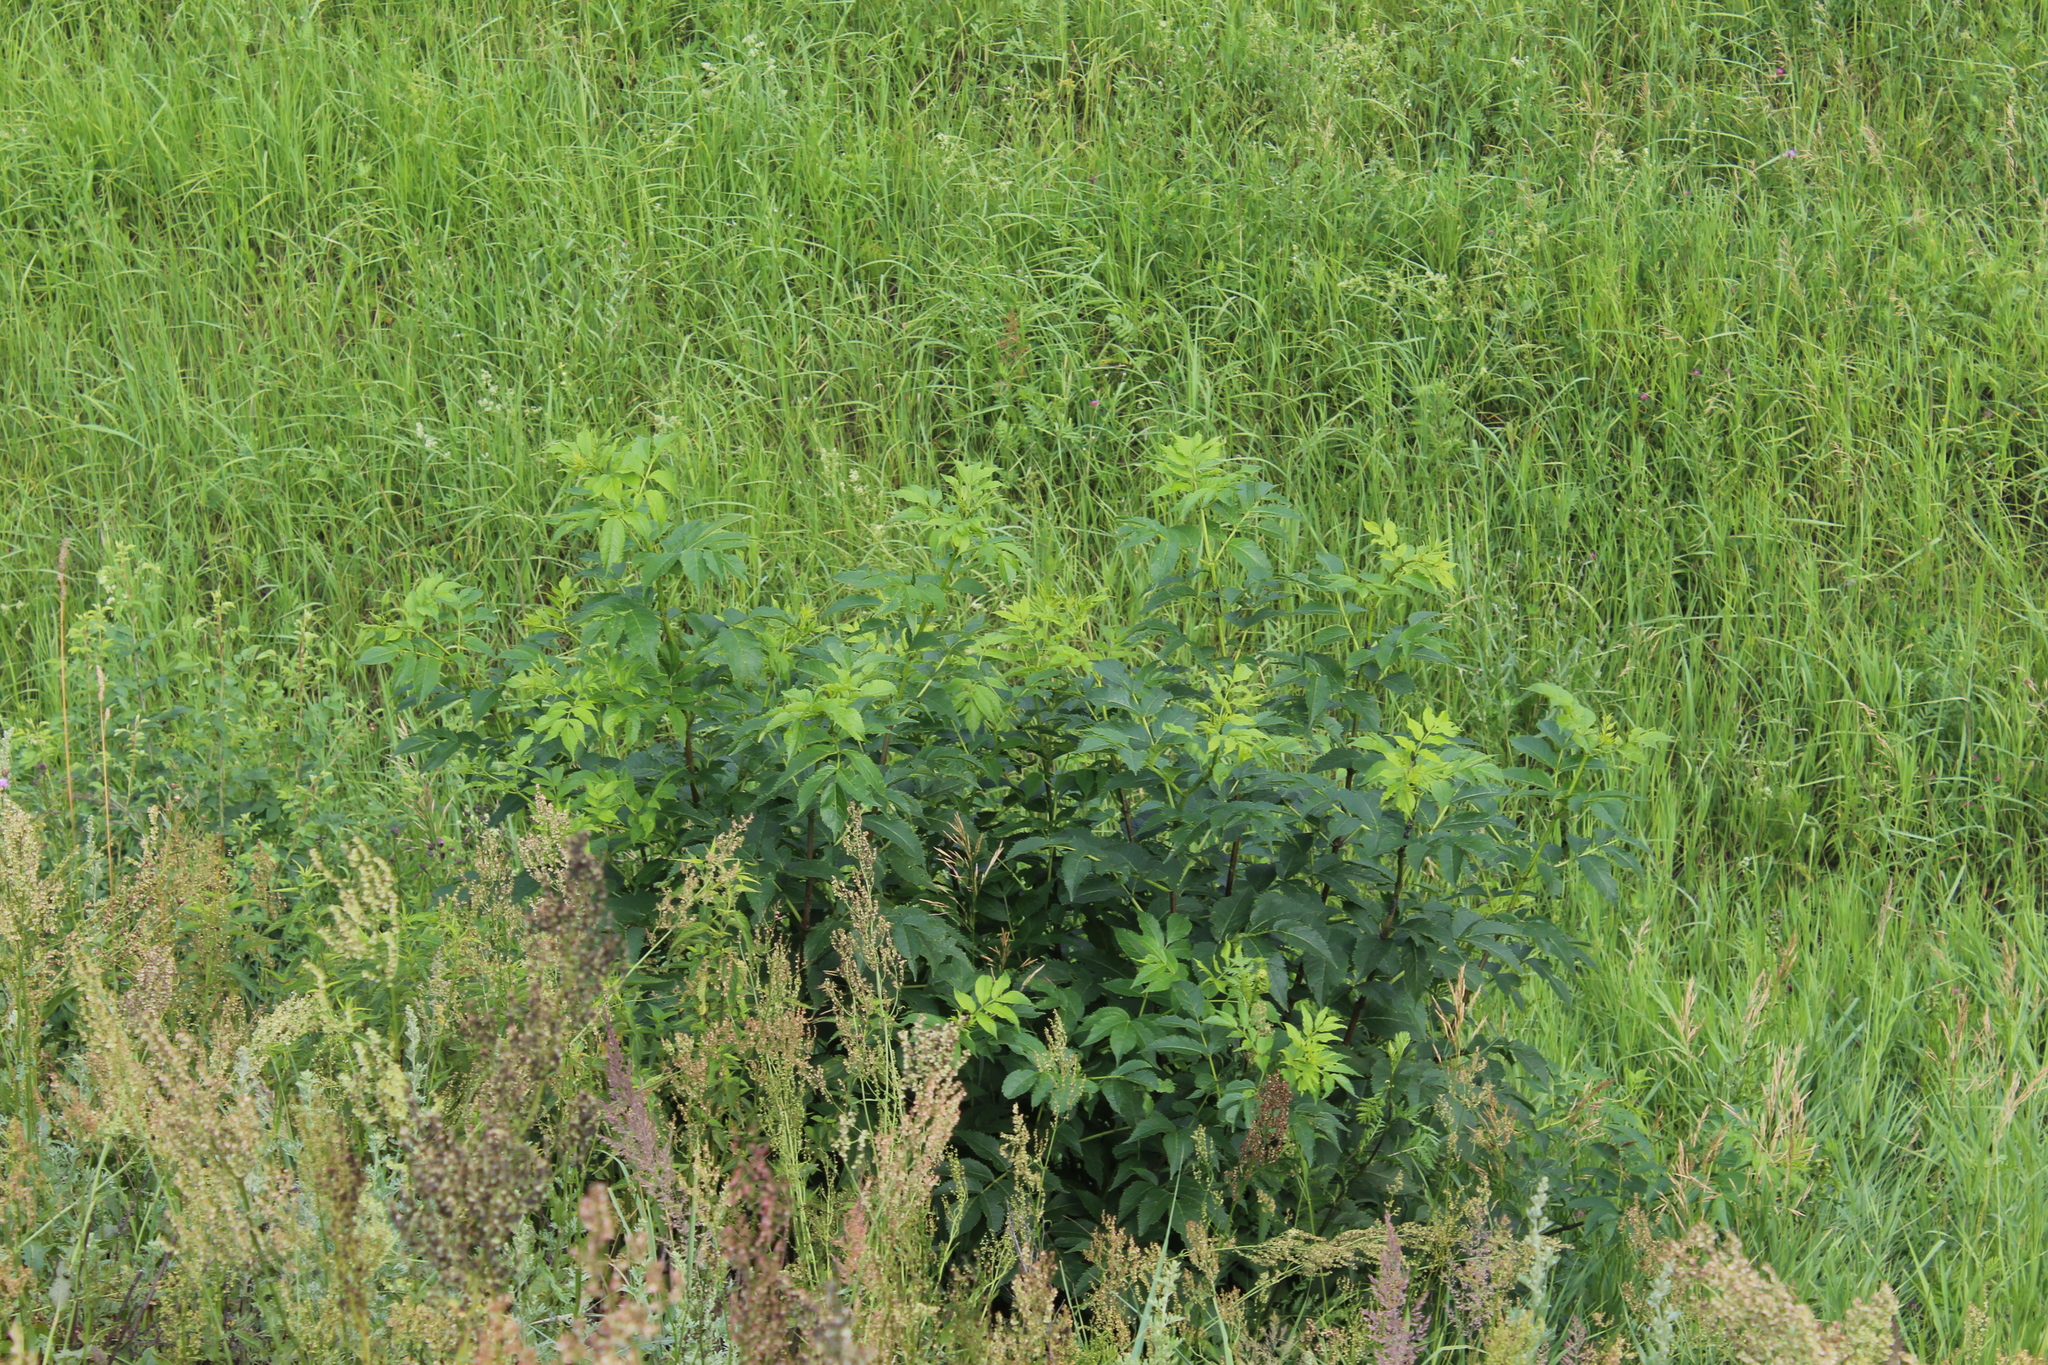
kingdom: Plantae
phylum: Tracheophyta
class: Magnoliopsida
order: Dipsacales
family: Viburnaceae
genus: Sambucus
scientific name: Sambucus racemosa
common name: Red-berried elder
